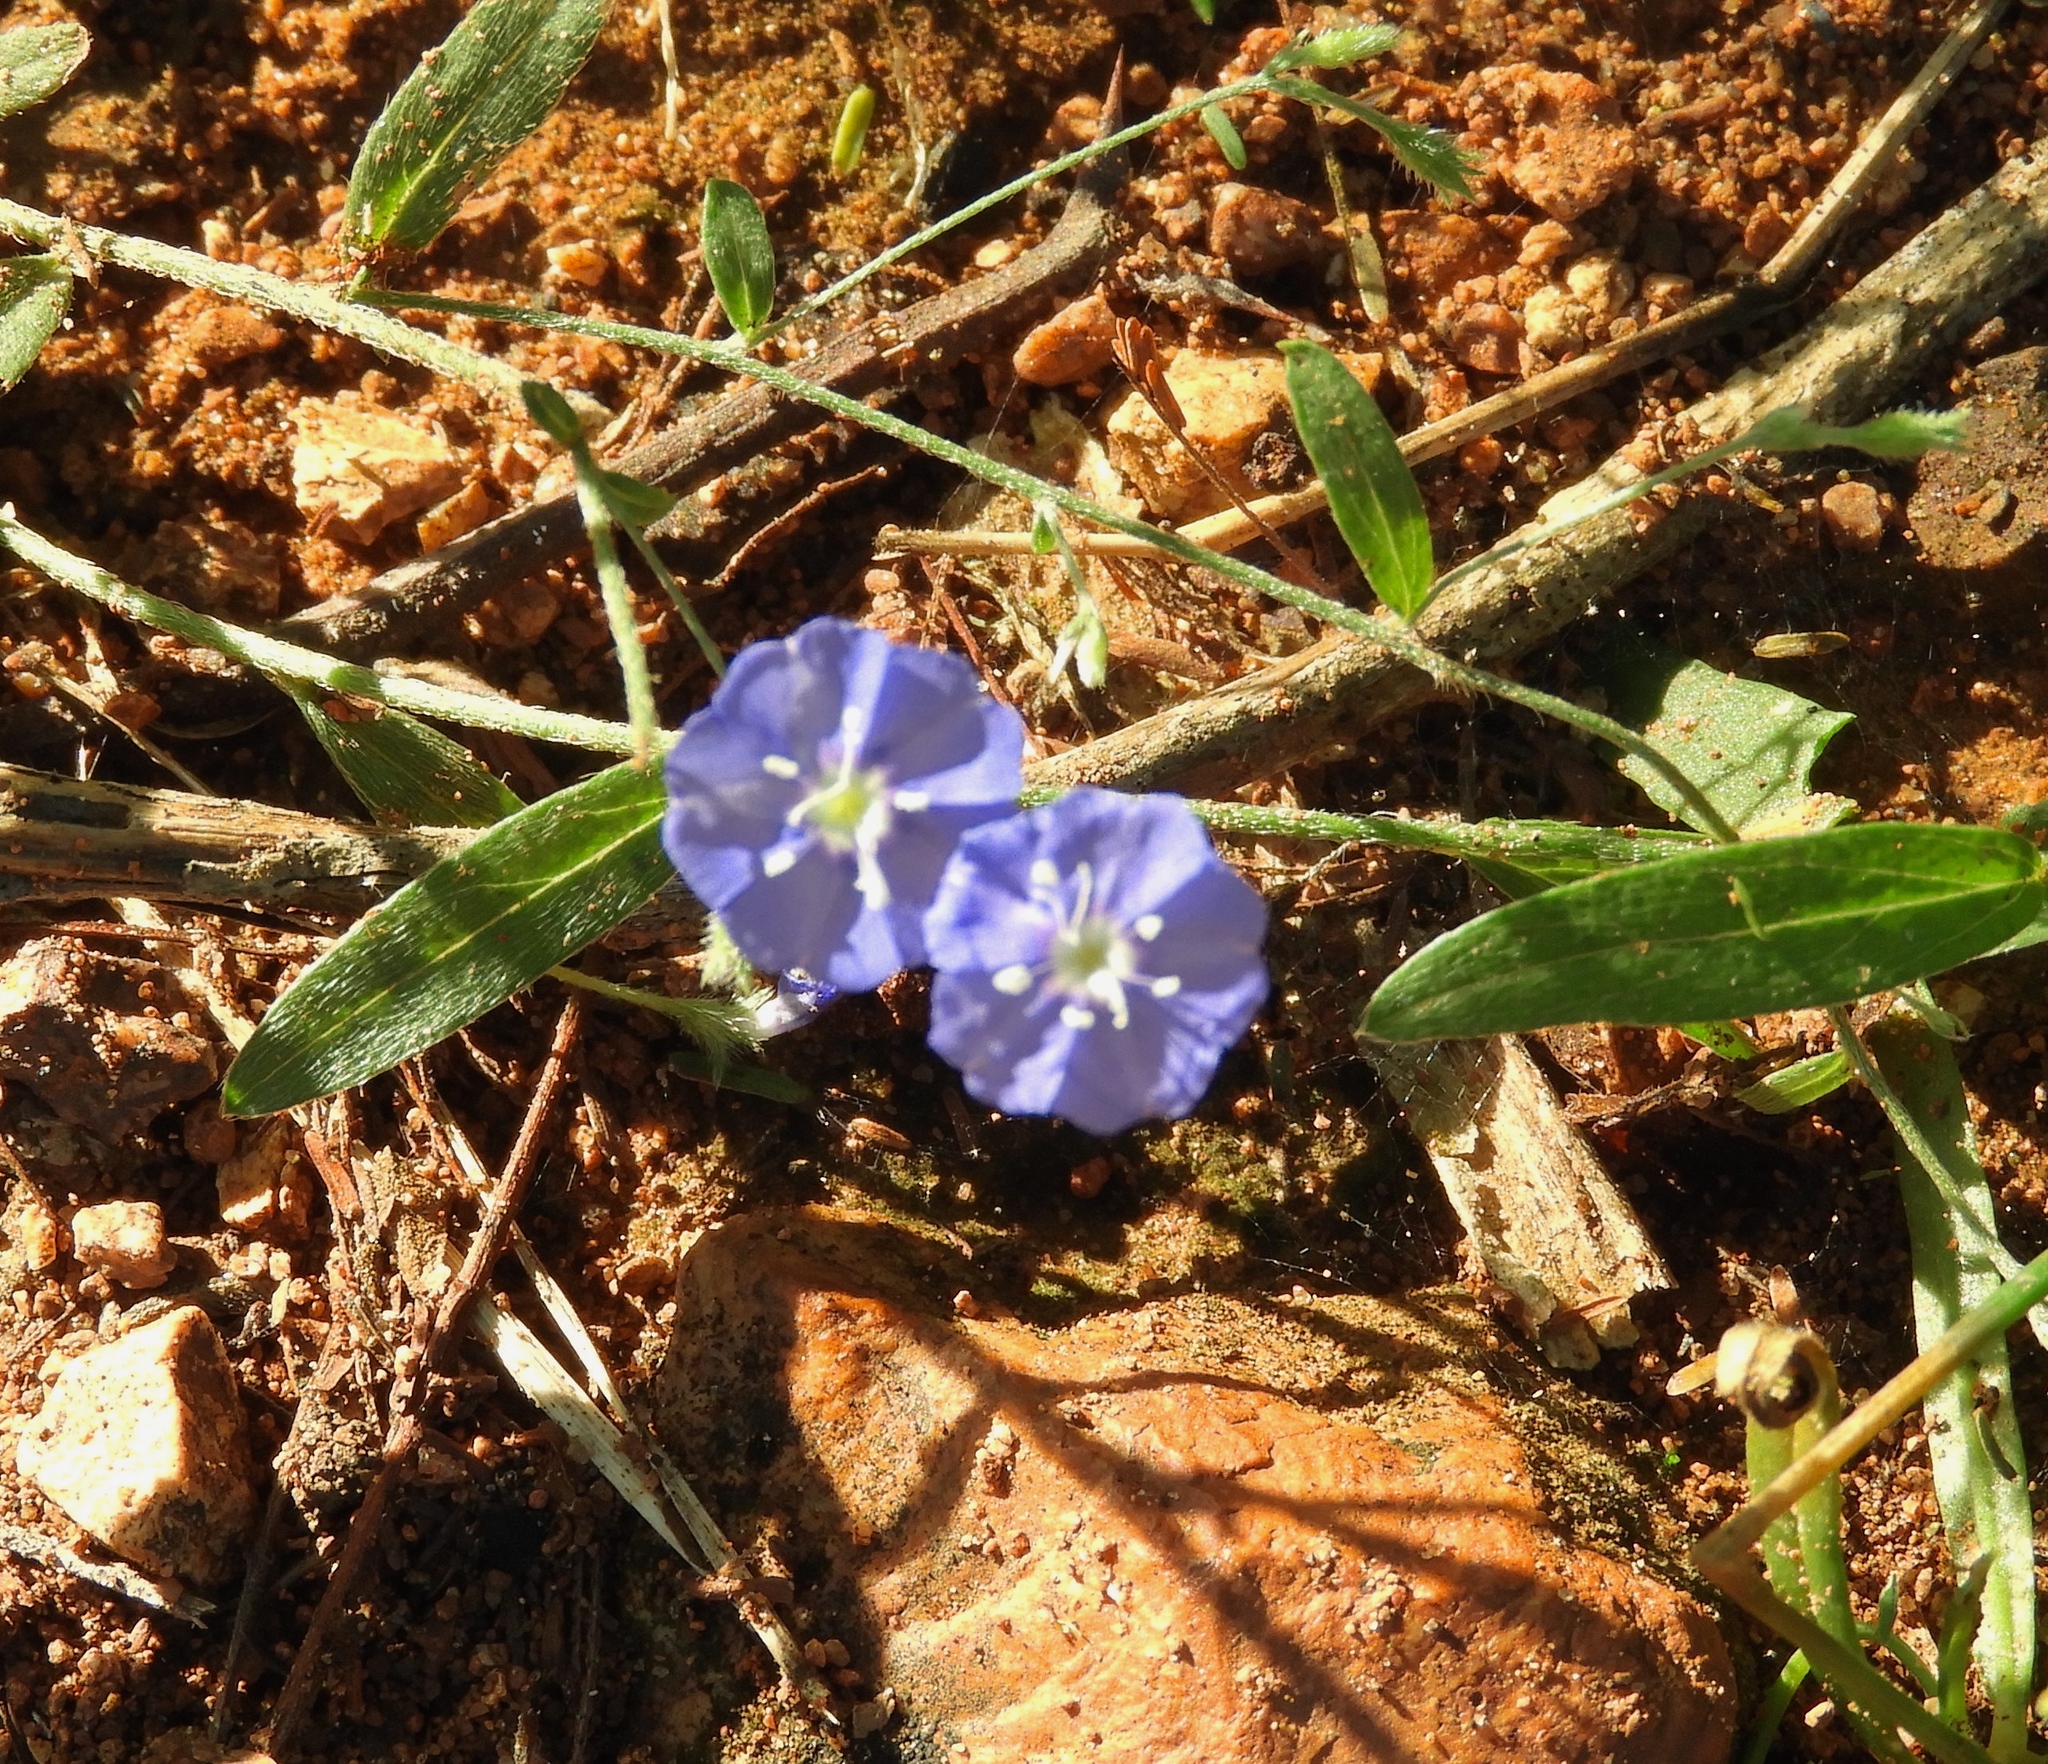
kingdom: Plantae
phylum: Tracheophyta
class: Magnoliopsida
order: Solanales
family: Convolvulaceae
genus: Evolvulus
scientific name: Evolvulus alsinoides
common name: Slender dwarf morning-glory
